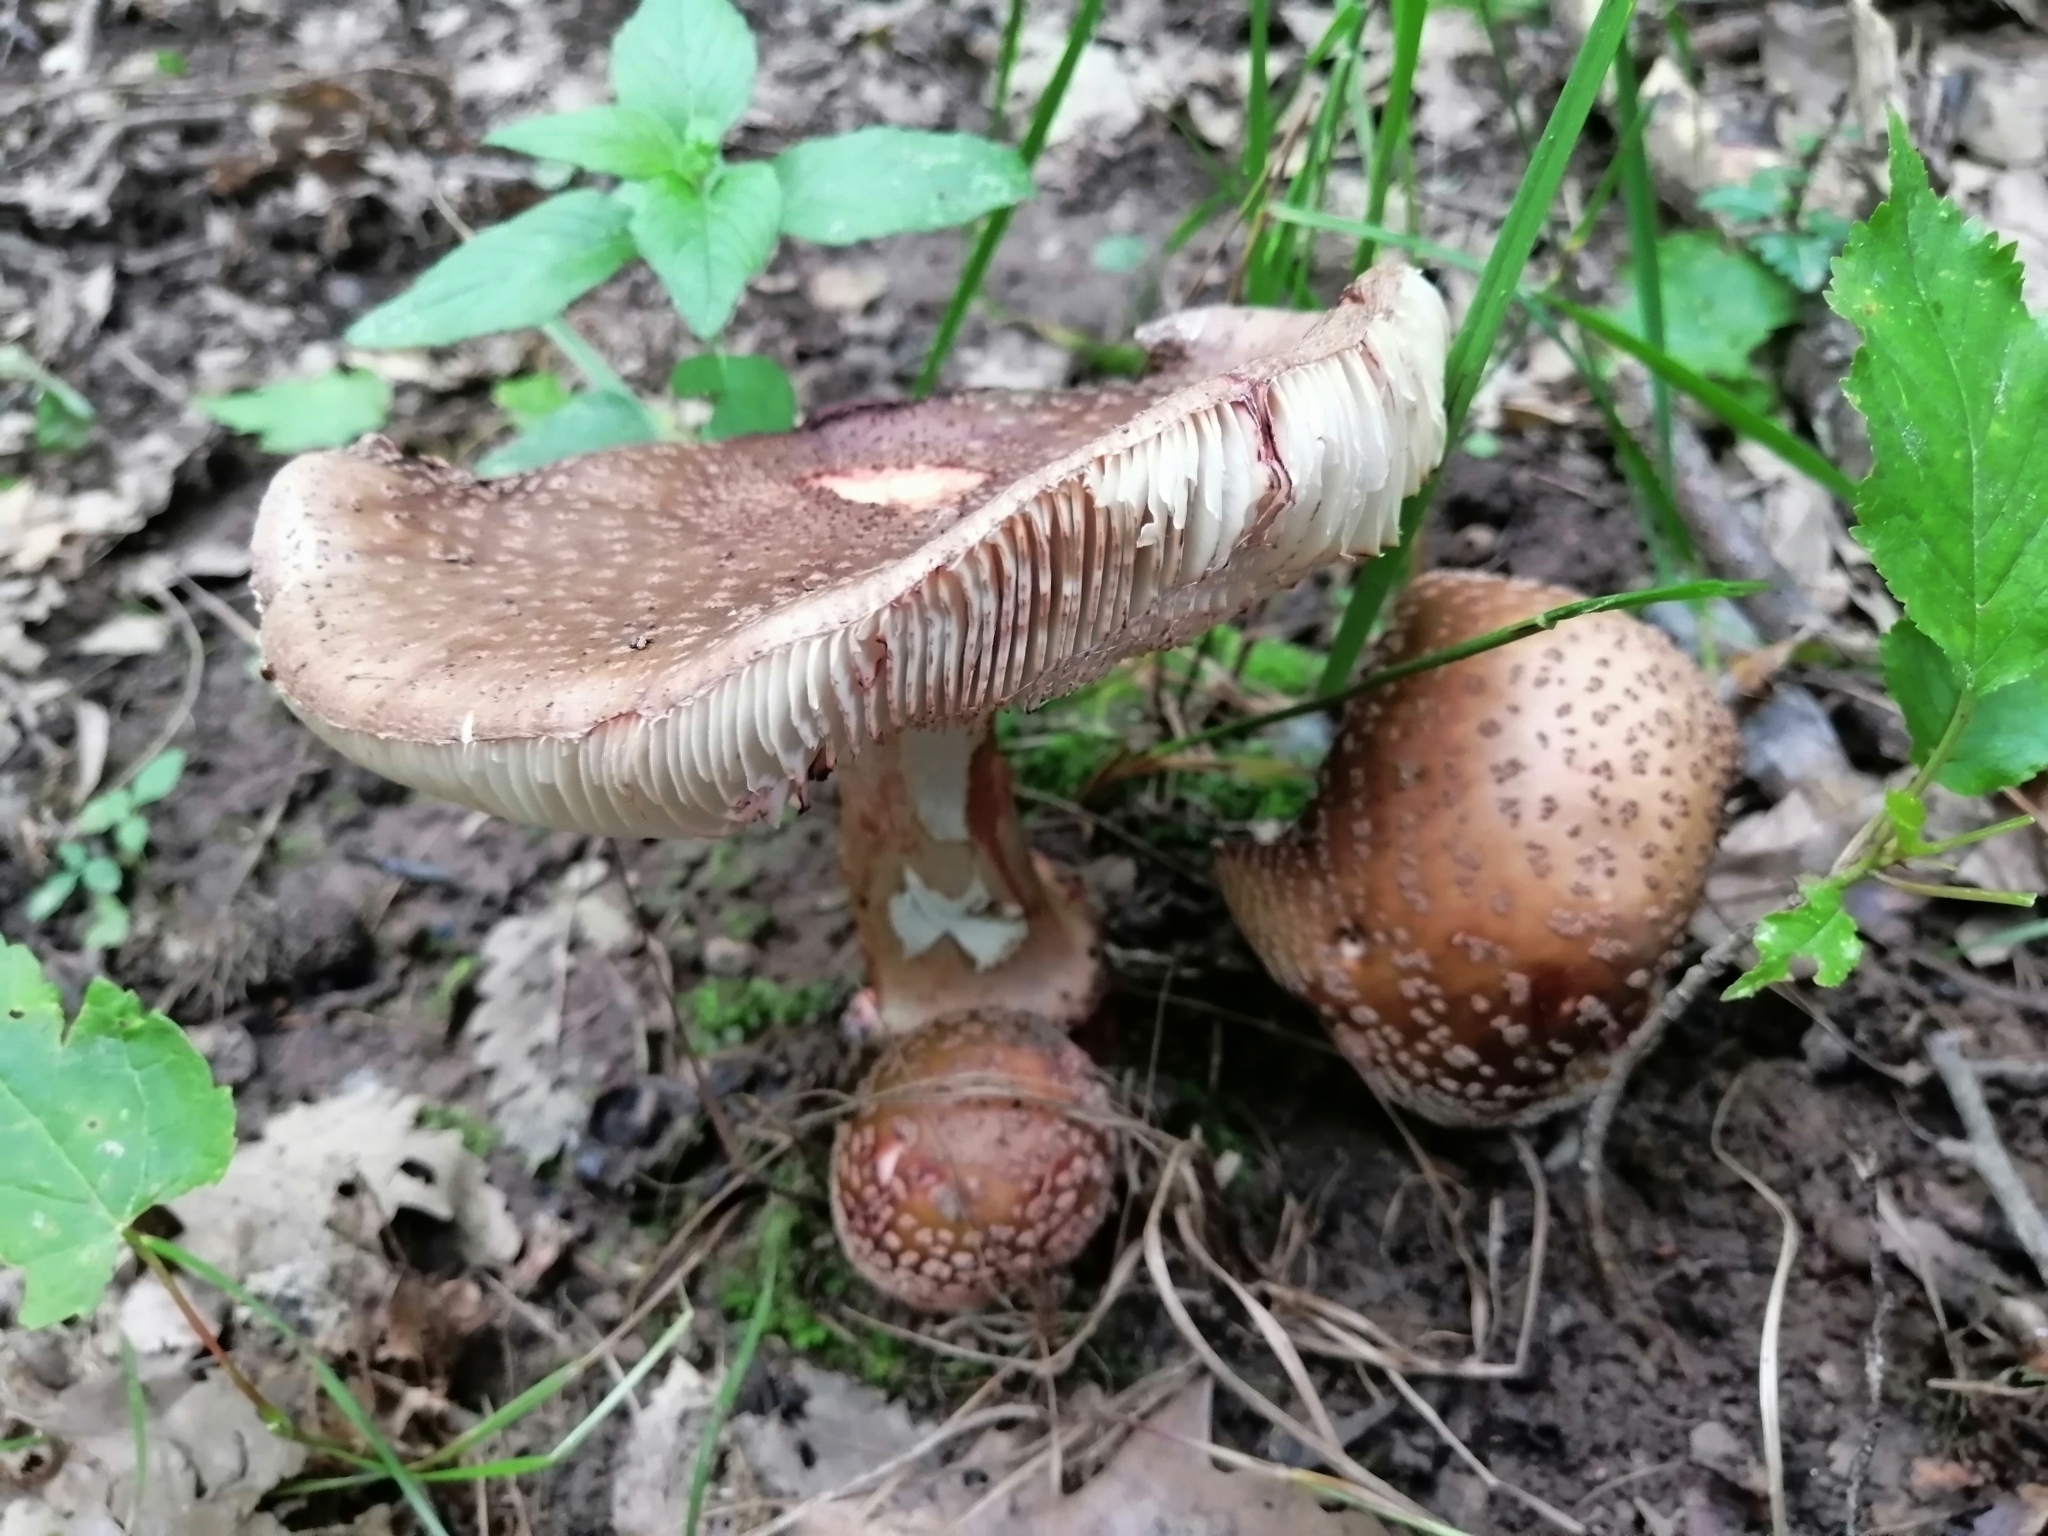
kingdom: Fungi
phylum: Basidiomycota
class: Agaricomycetes
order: Agaricales
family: Amanitaceae
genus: Amanita
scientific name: Amanita rubescens
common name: Blusher
